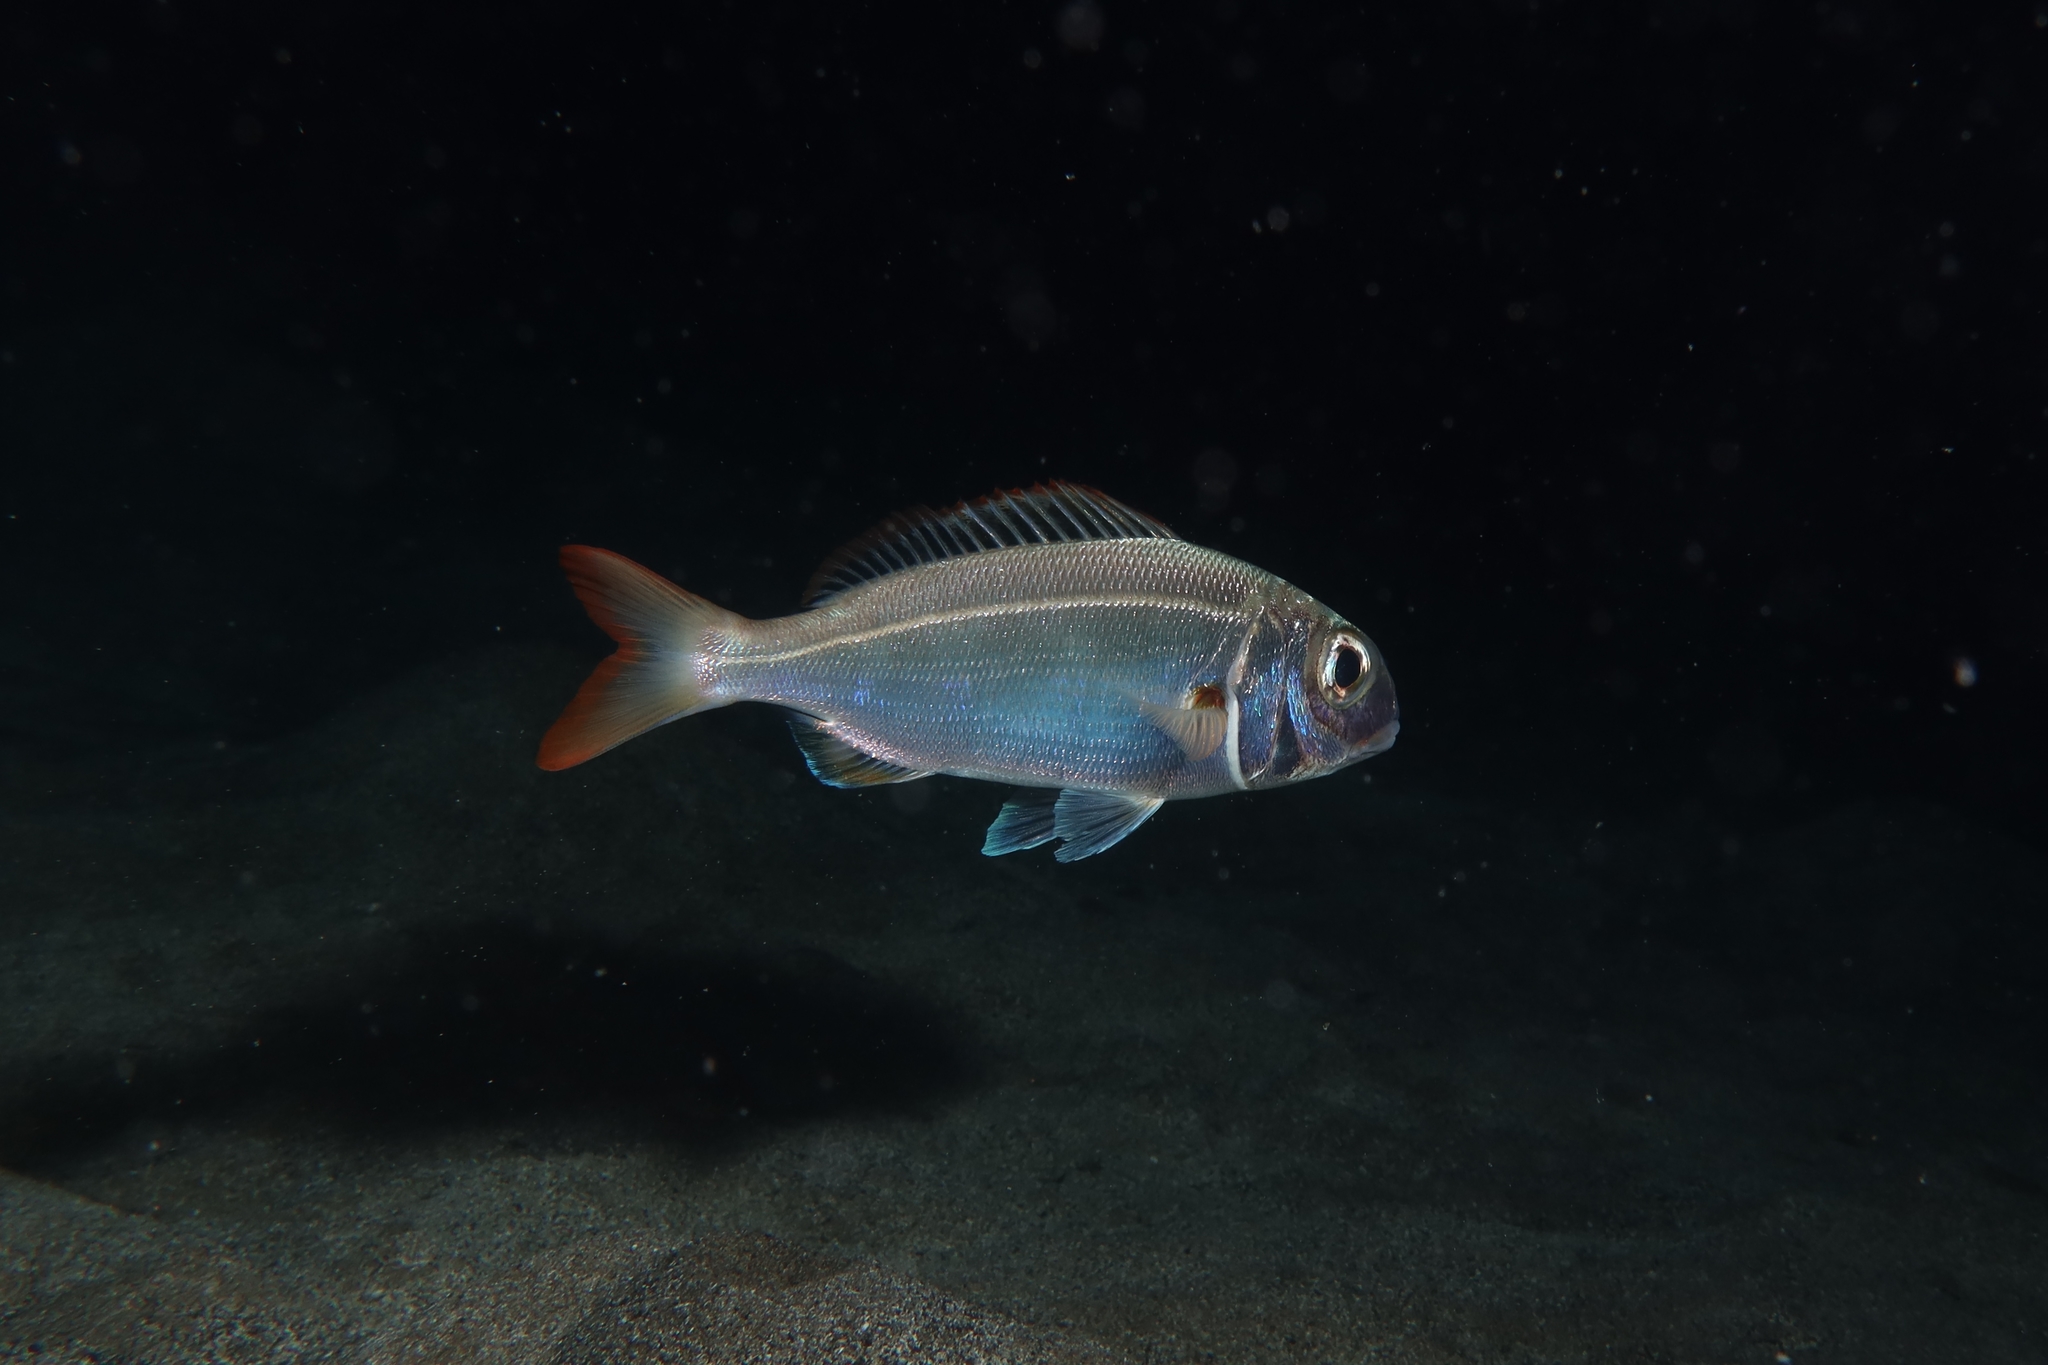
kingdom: Animalia
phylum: Chordata
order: Perciformes
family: Sparidae
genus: Pagellus
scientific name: Pagellus acarne
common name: Axillary sea-bream
